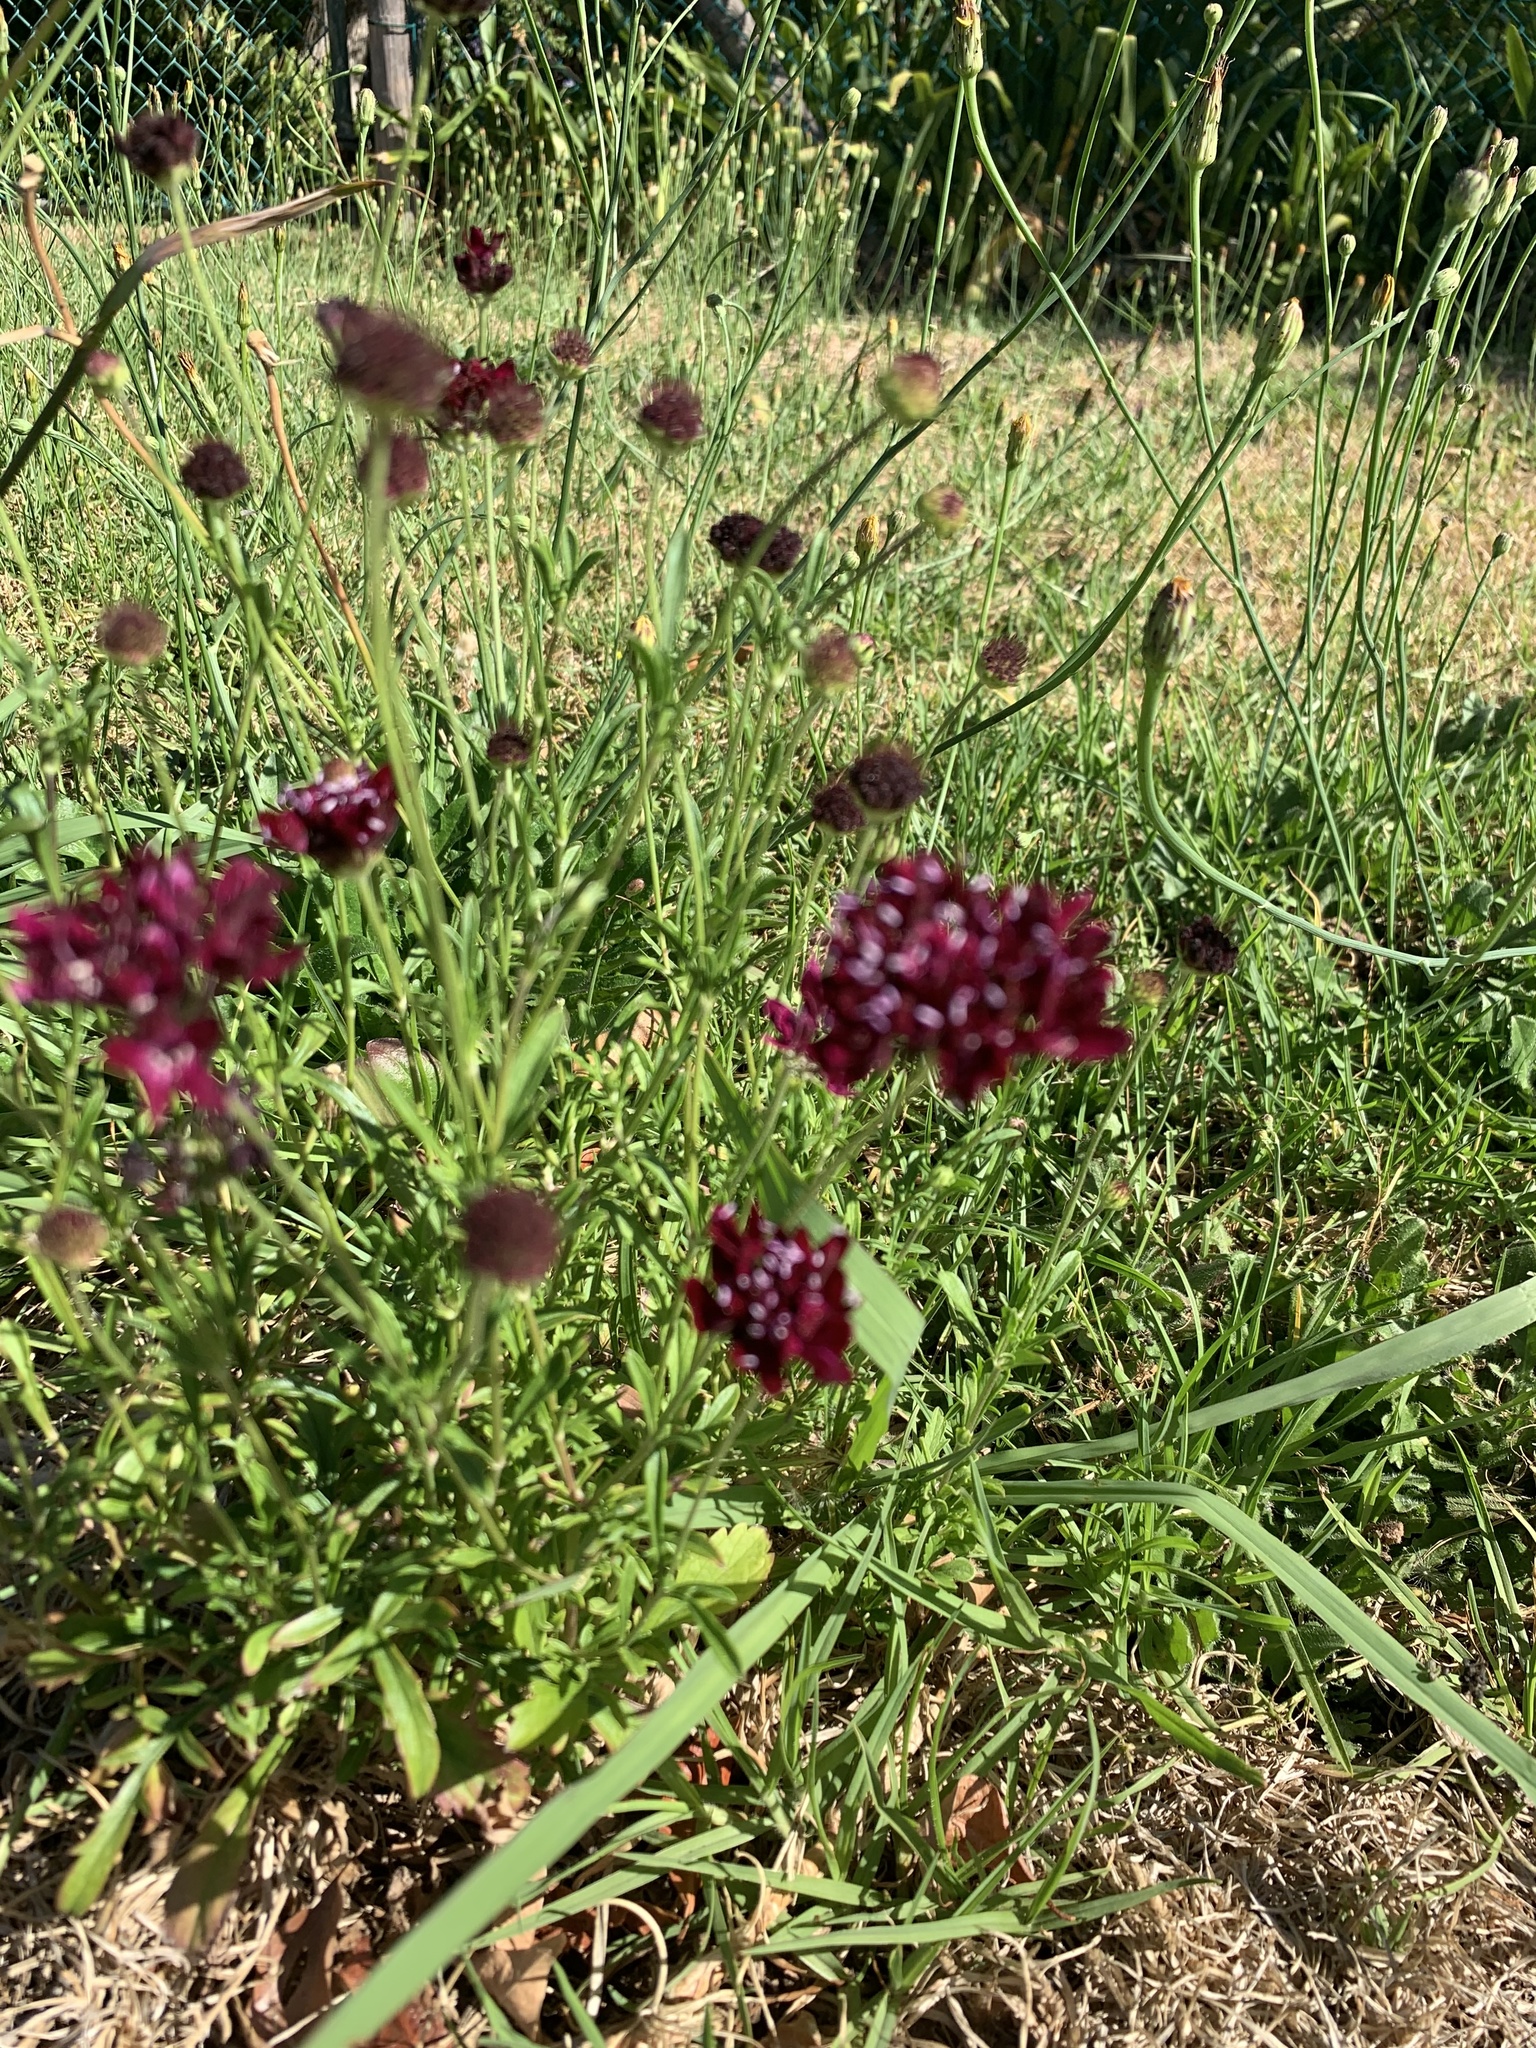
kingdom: Plantae
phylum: Tracheophyta
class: Magnoliopsida
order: Dipsacales
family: Caprifoliaceae
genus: Sixalix
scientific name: Sixalix atropurpurea
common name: Sweet scabious
